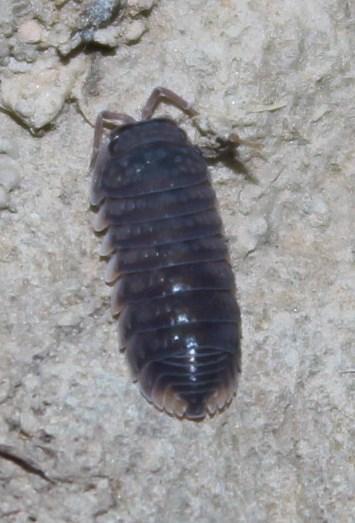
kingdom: Animalia
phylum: Arthropoda
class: Malacostraca
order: Isopoda
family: Armadillidae
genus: Bethalus
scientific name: Bethalus limbatus
